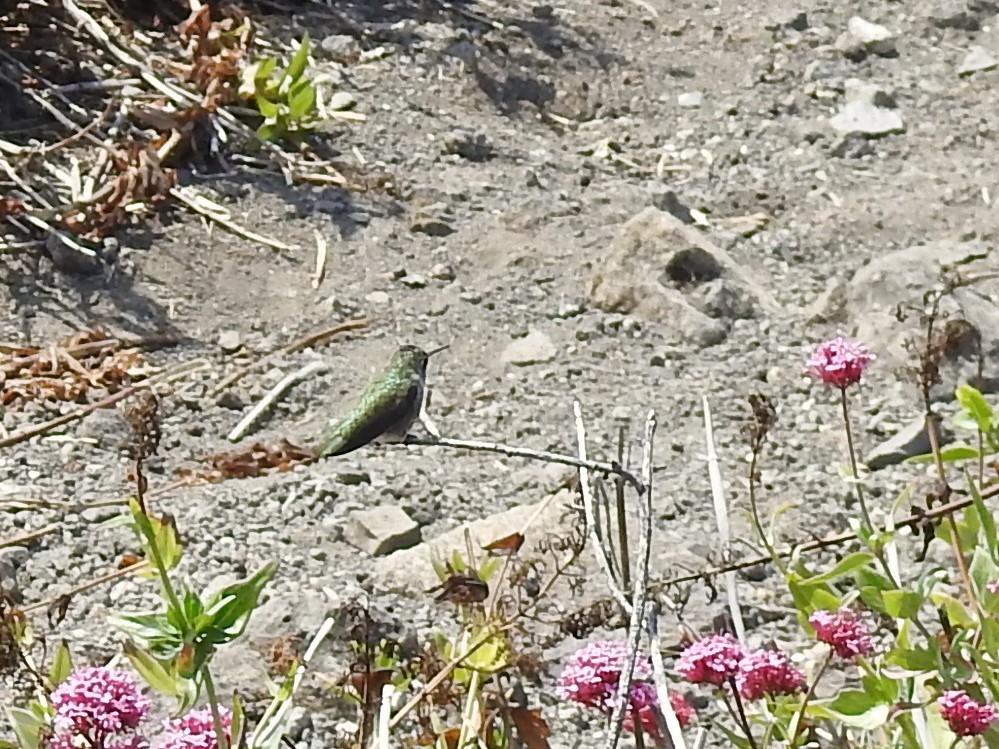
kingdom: Animalia
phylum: Chordata
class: Aves
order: Apodiformes
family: Trochilidae
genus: Calypte
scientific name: Calypte anna
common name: Anna's hummingbird
